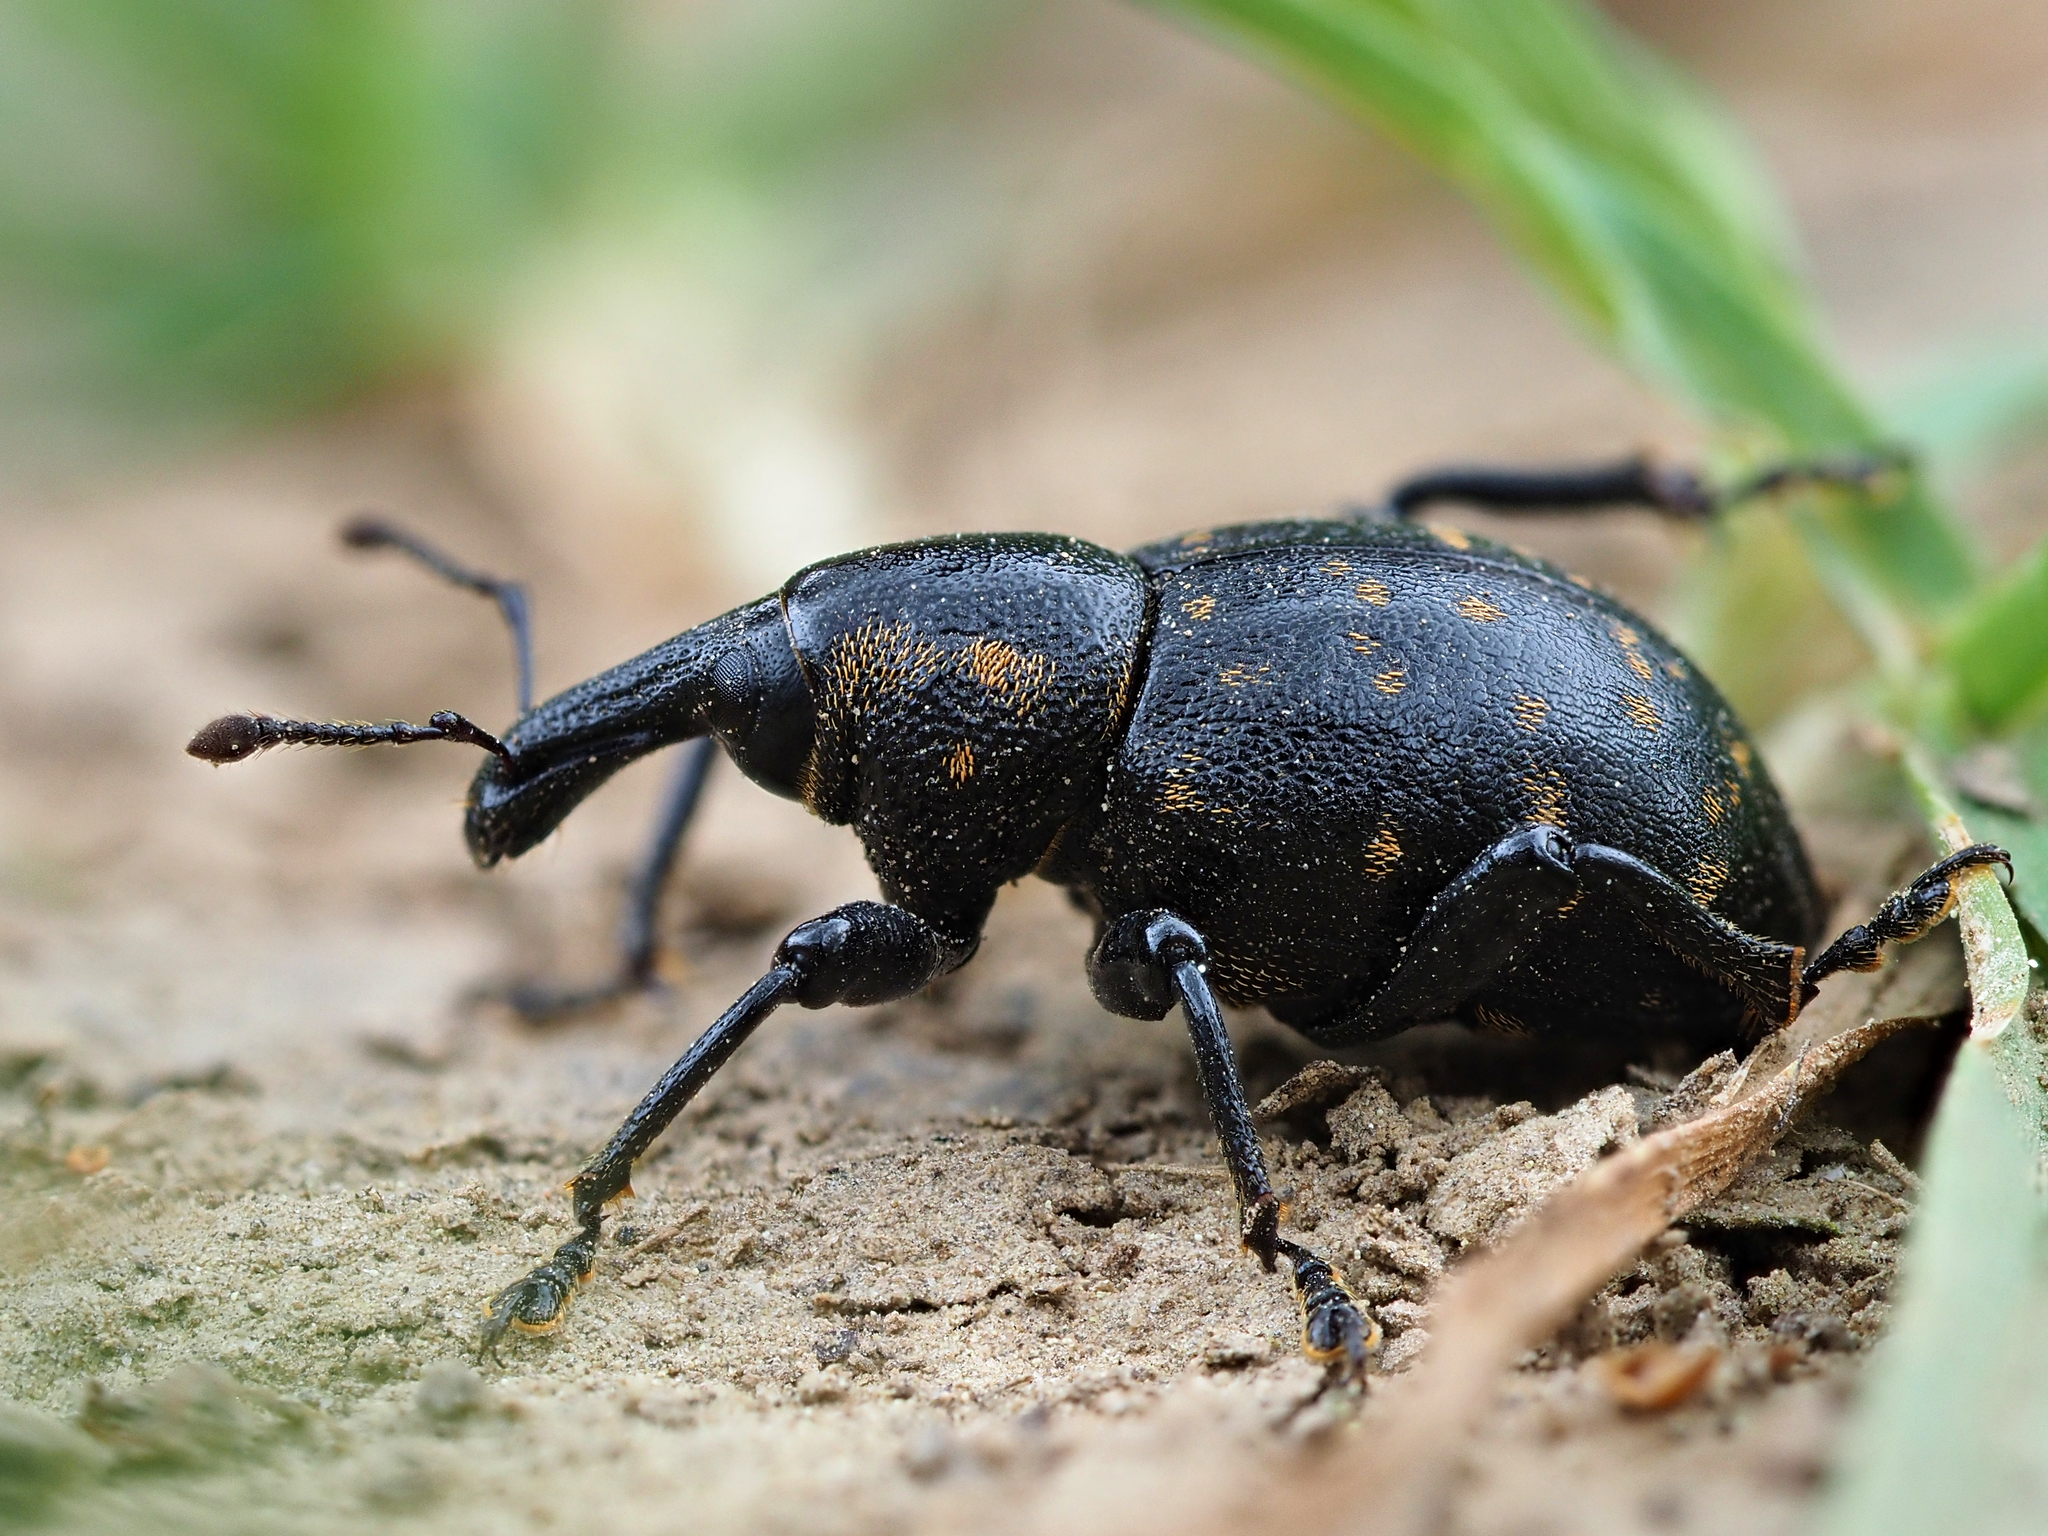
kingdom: Animalia
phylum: Arthropoda
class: Insecta
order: Coleoptera
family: Curculionidae
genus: Liparus
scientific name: Liparus germanus
